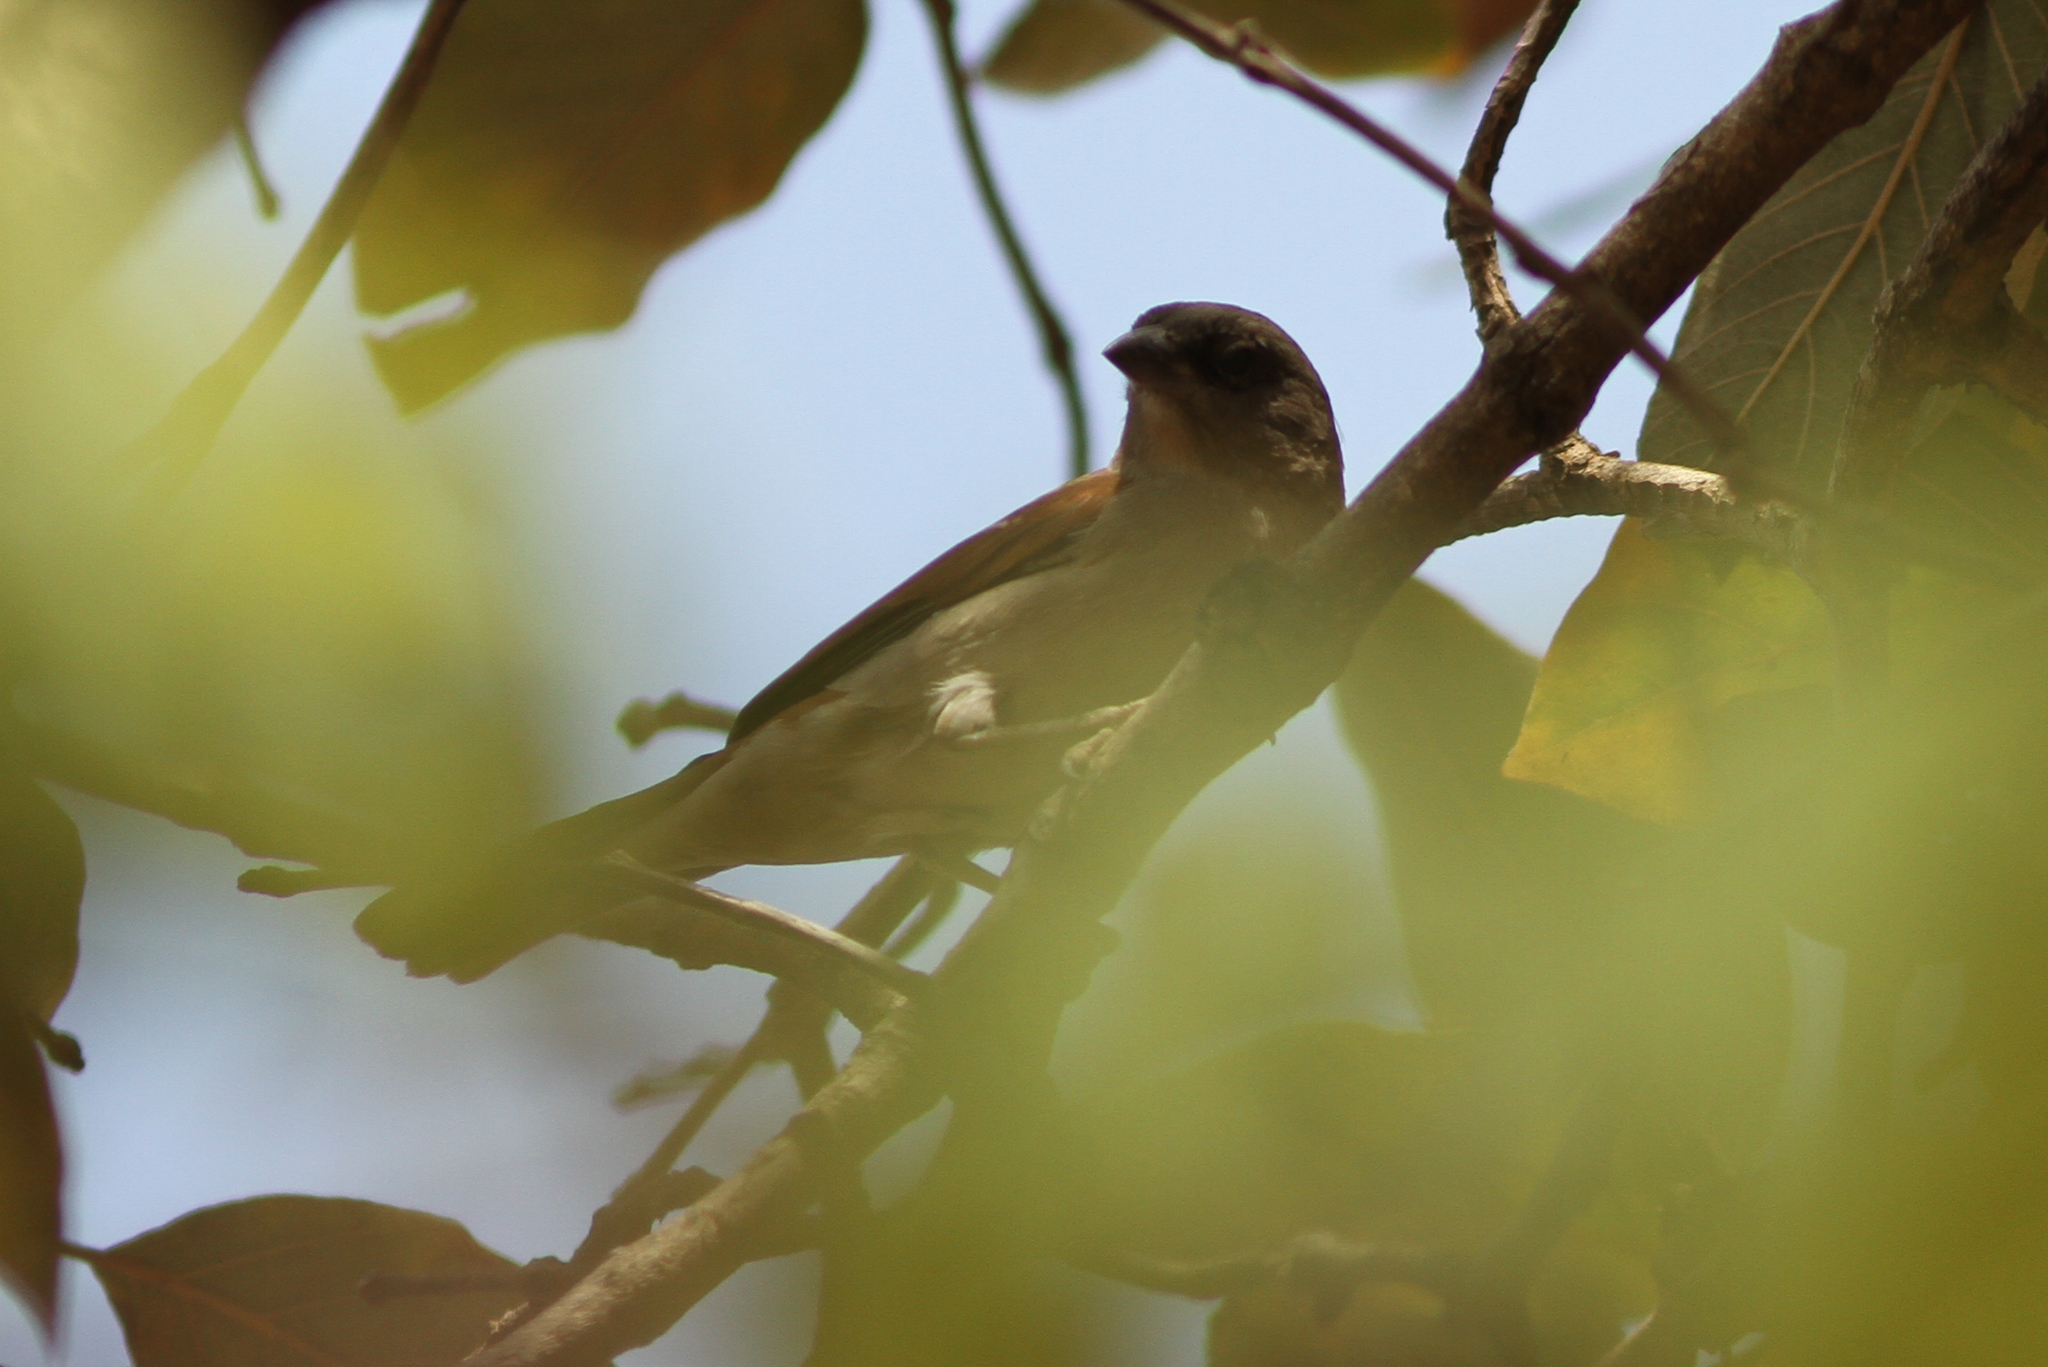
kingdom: Animalia
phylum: Chordata
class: Aves
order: Passeriformes
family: Passeridae
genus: Passer
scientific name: Passer griseus
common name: Northern grey-headed sparrow
